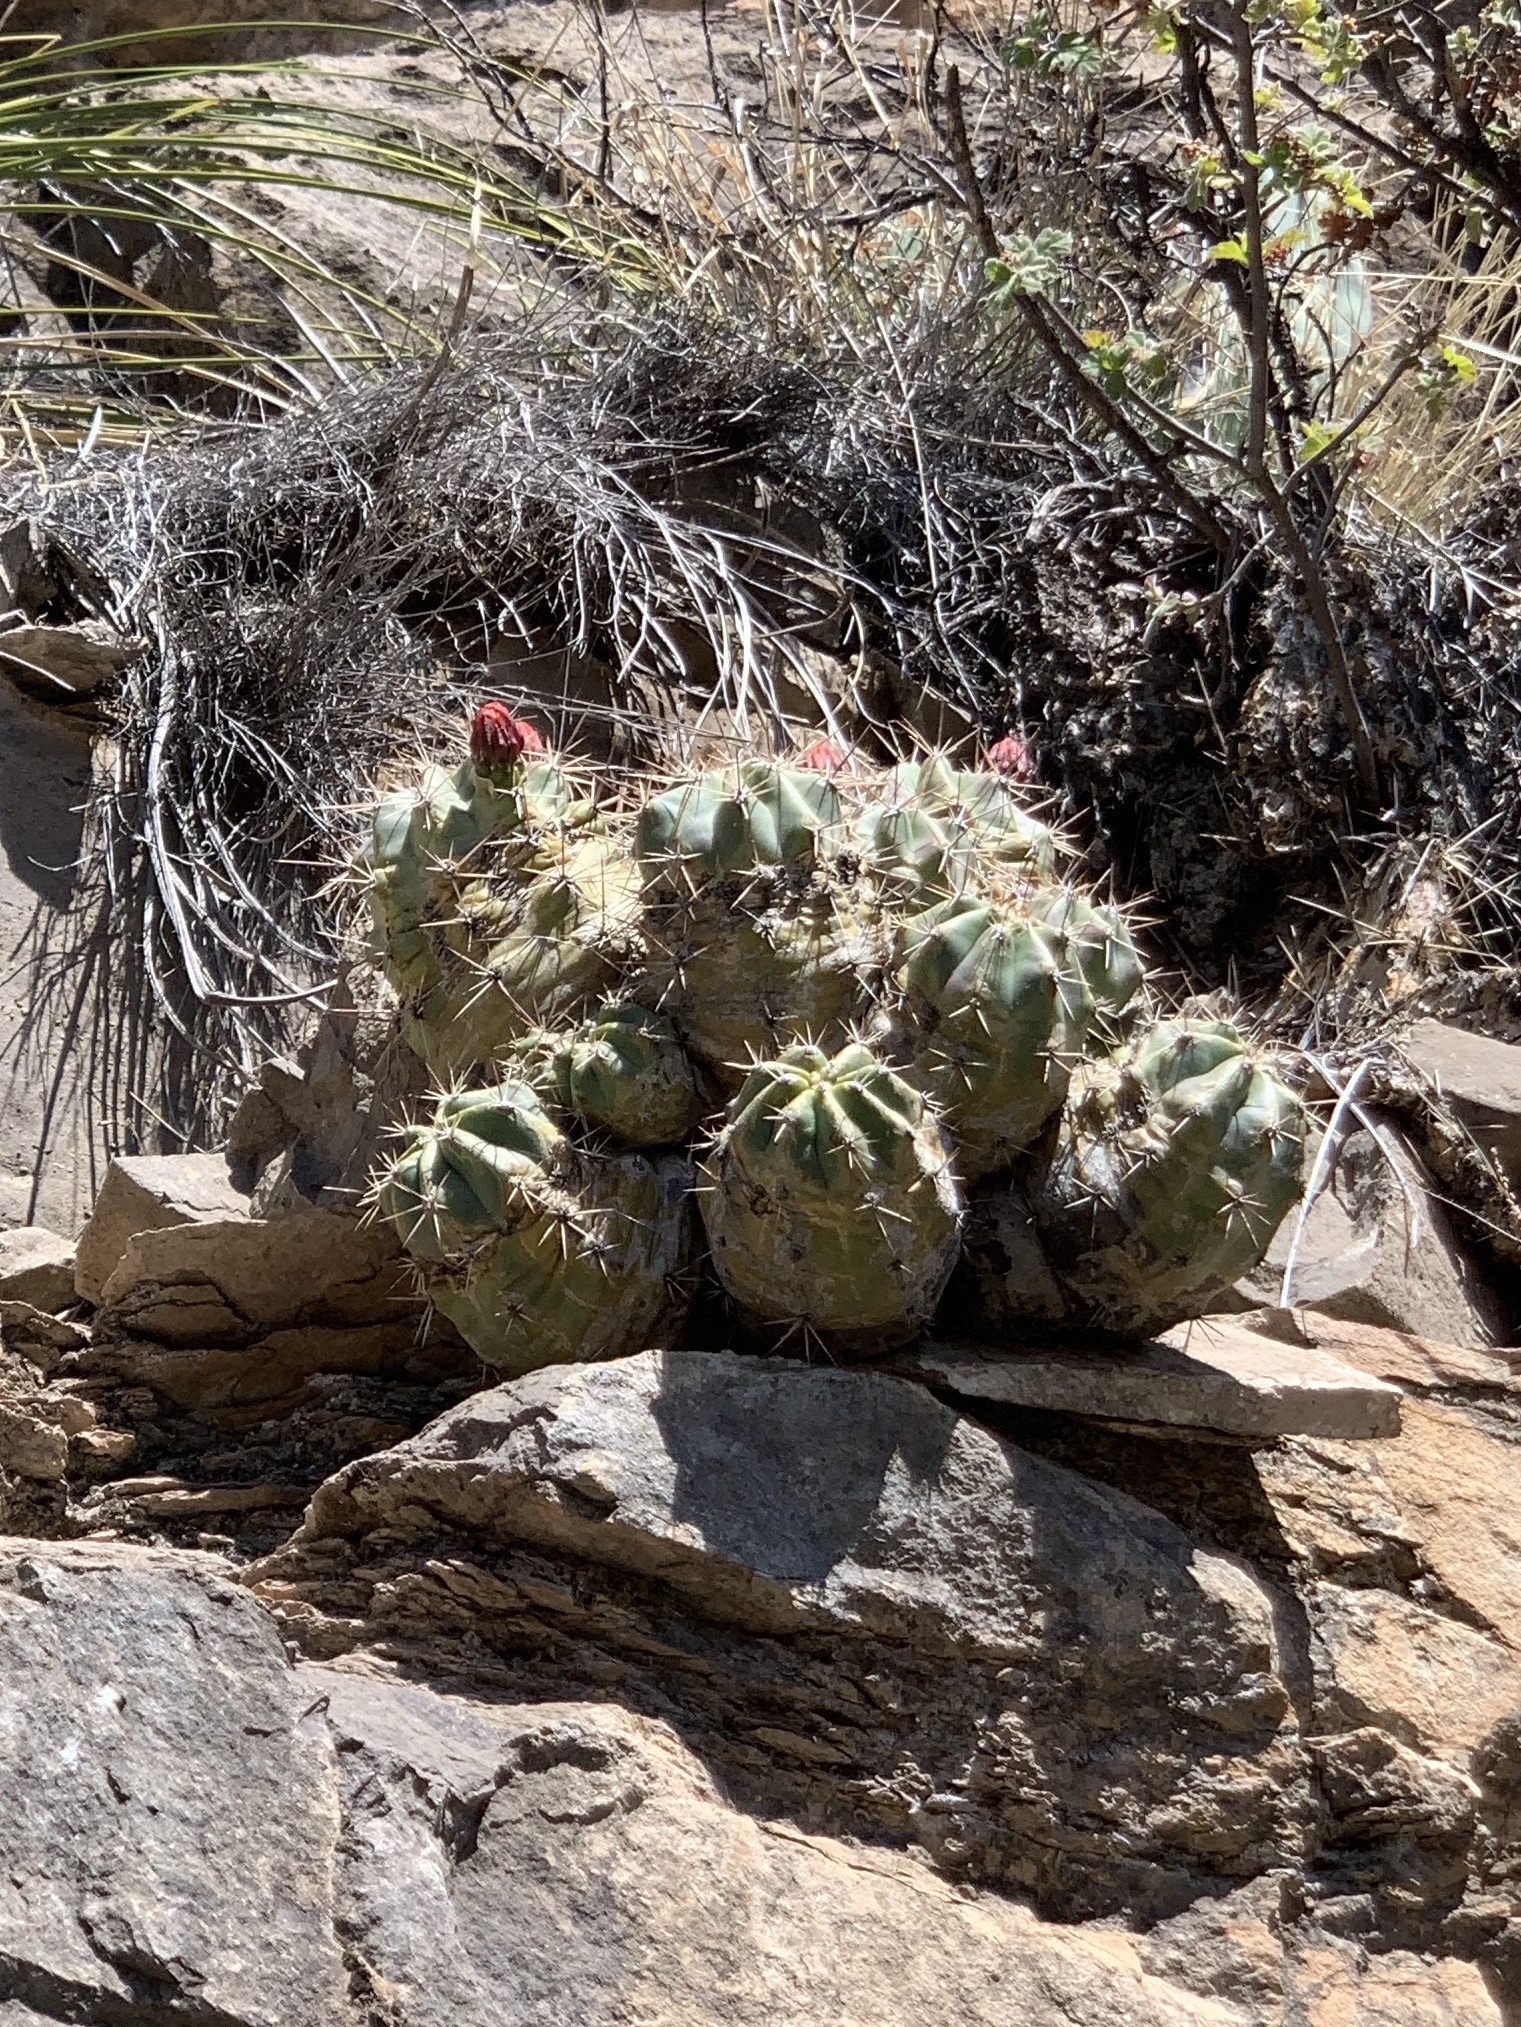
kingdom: Plantae
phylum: Tracheophyta
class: Magnoliopsida
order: Caryophyllales
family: Cactaceae
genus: Echinocereus
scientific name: Echinocereus coccineus
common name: Scarlet hedgehog cactus
